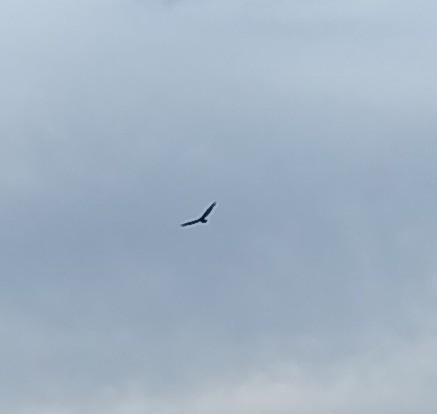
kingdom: Animalia
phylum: Chordata
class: Aves
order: Accipitriformes
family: Cathartidae
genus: Cathartes
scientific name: Cathartes aura
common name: Turkey vulture
